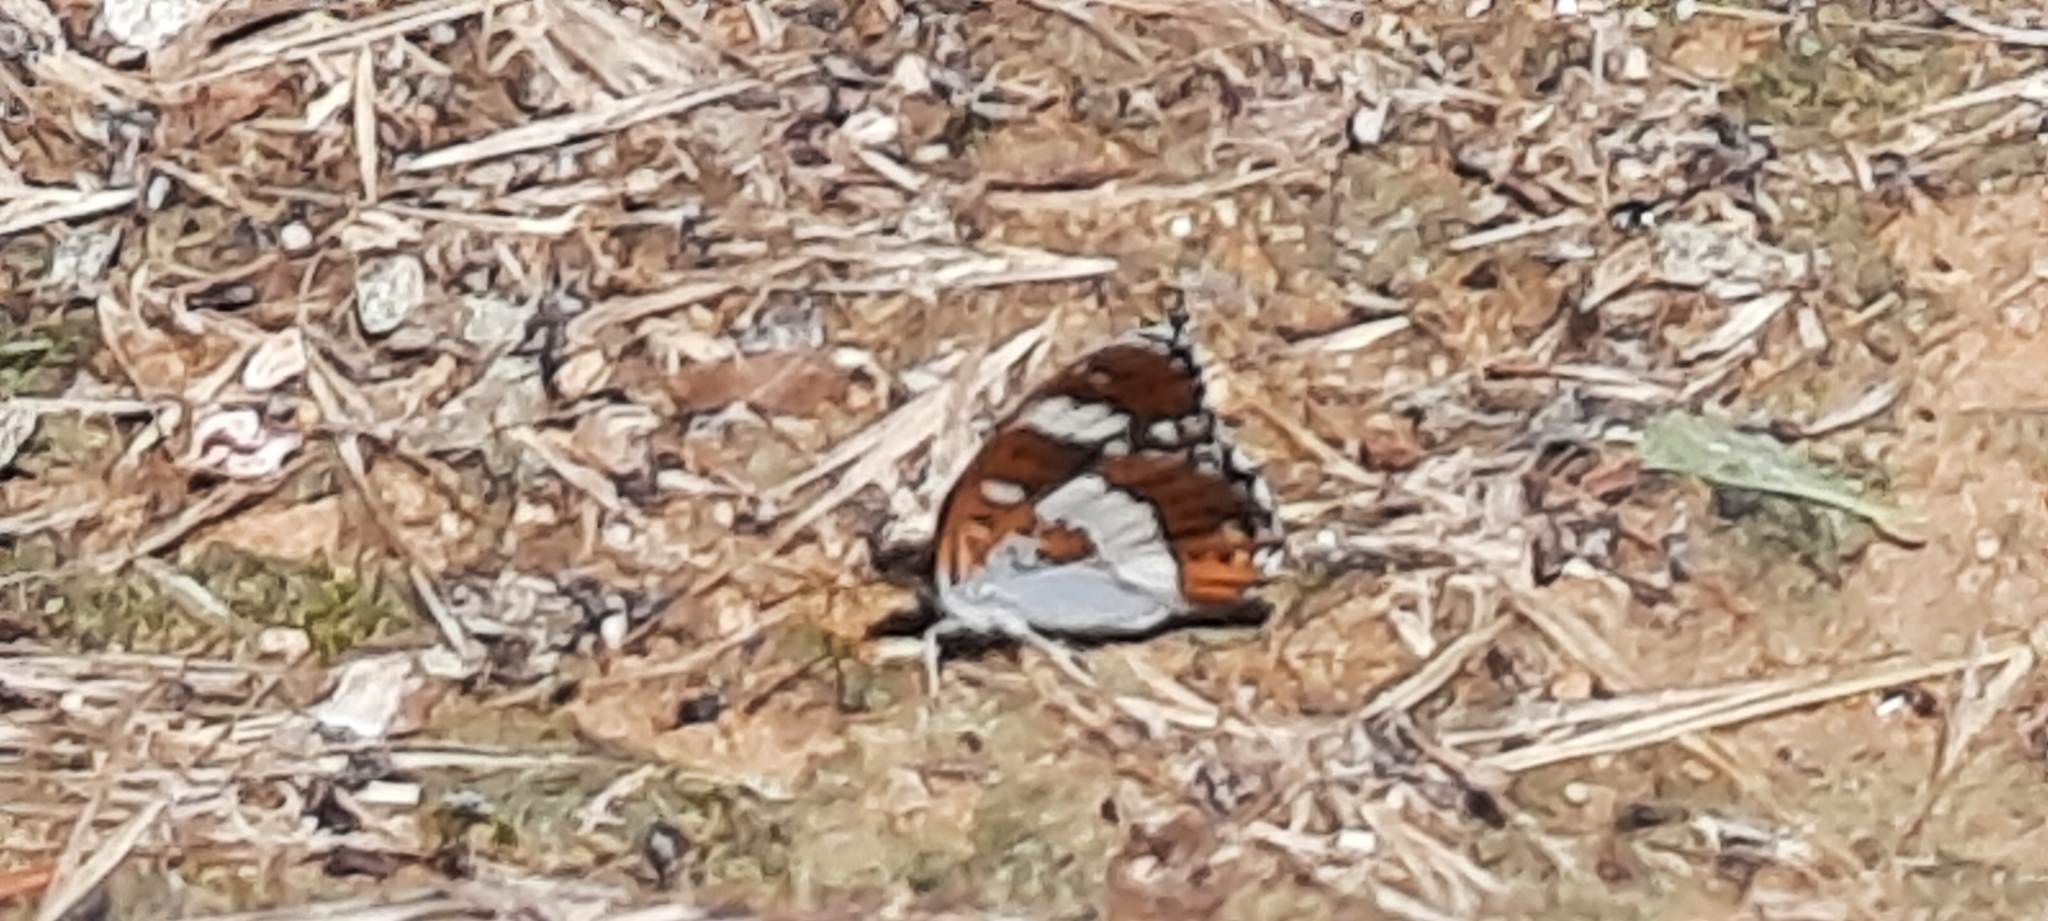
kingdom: Animalia
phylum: Arthropoda
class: Insecta
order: Lepidoptera
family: Nymphalidae
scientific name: Nymphalidae
